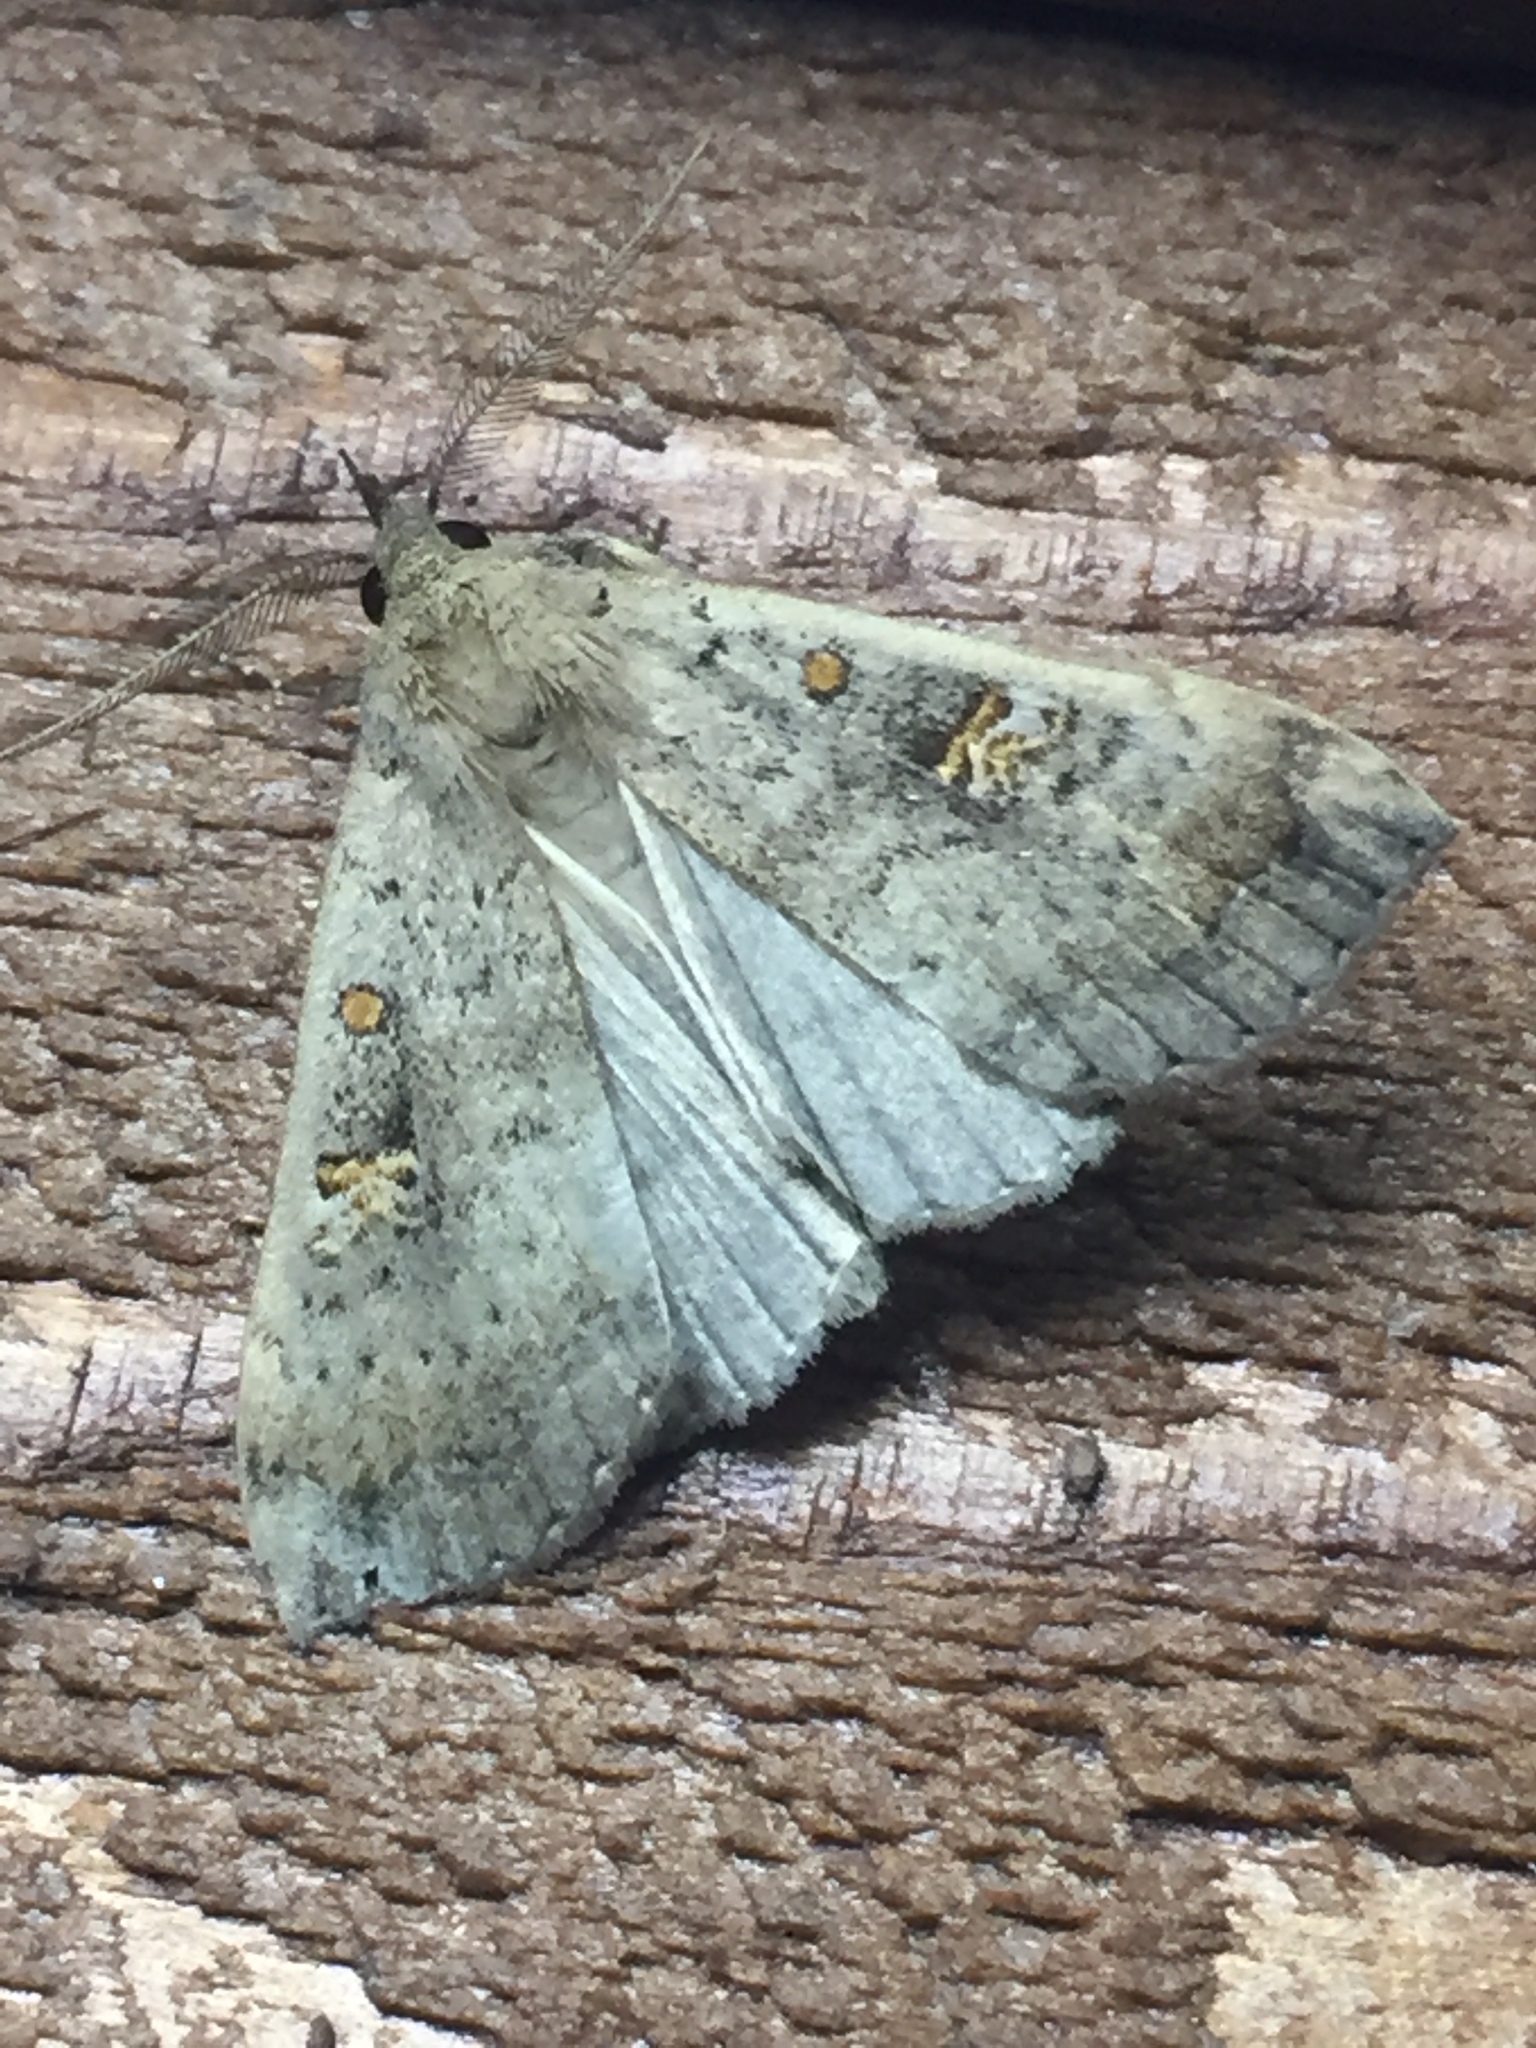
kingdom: Animalia
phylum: Arthropoda
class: Insecta
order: Lepidoptera
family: Erebidae
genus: Rhapsa
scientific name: Rhapsa scotosialis
